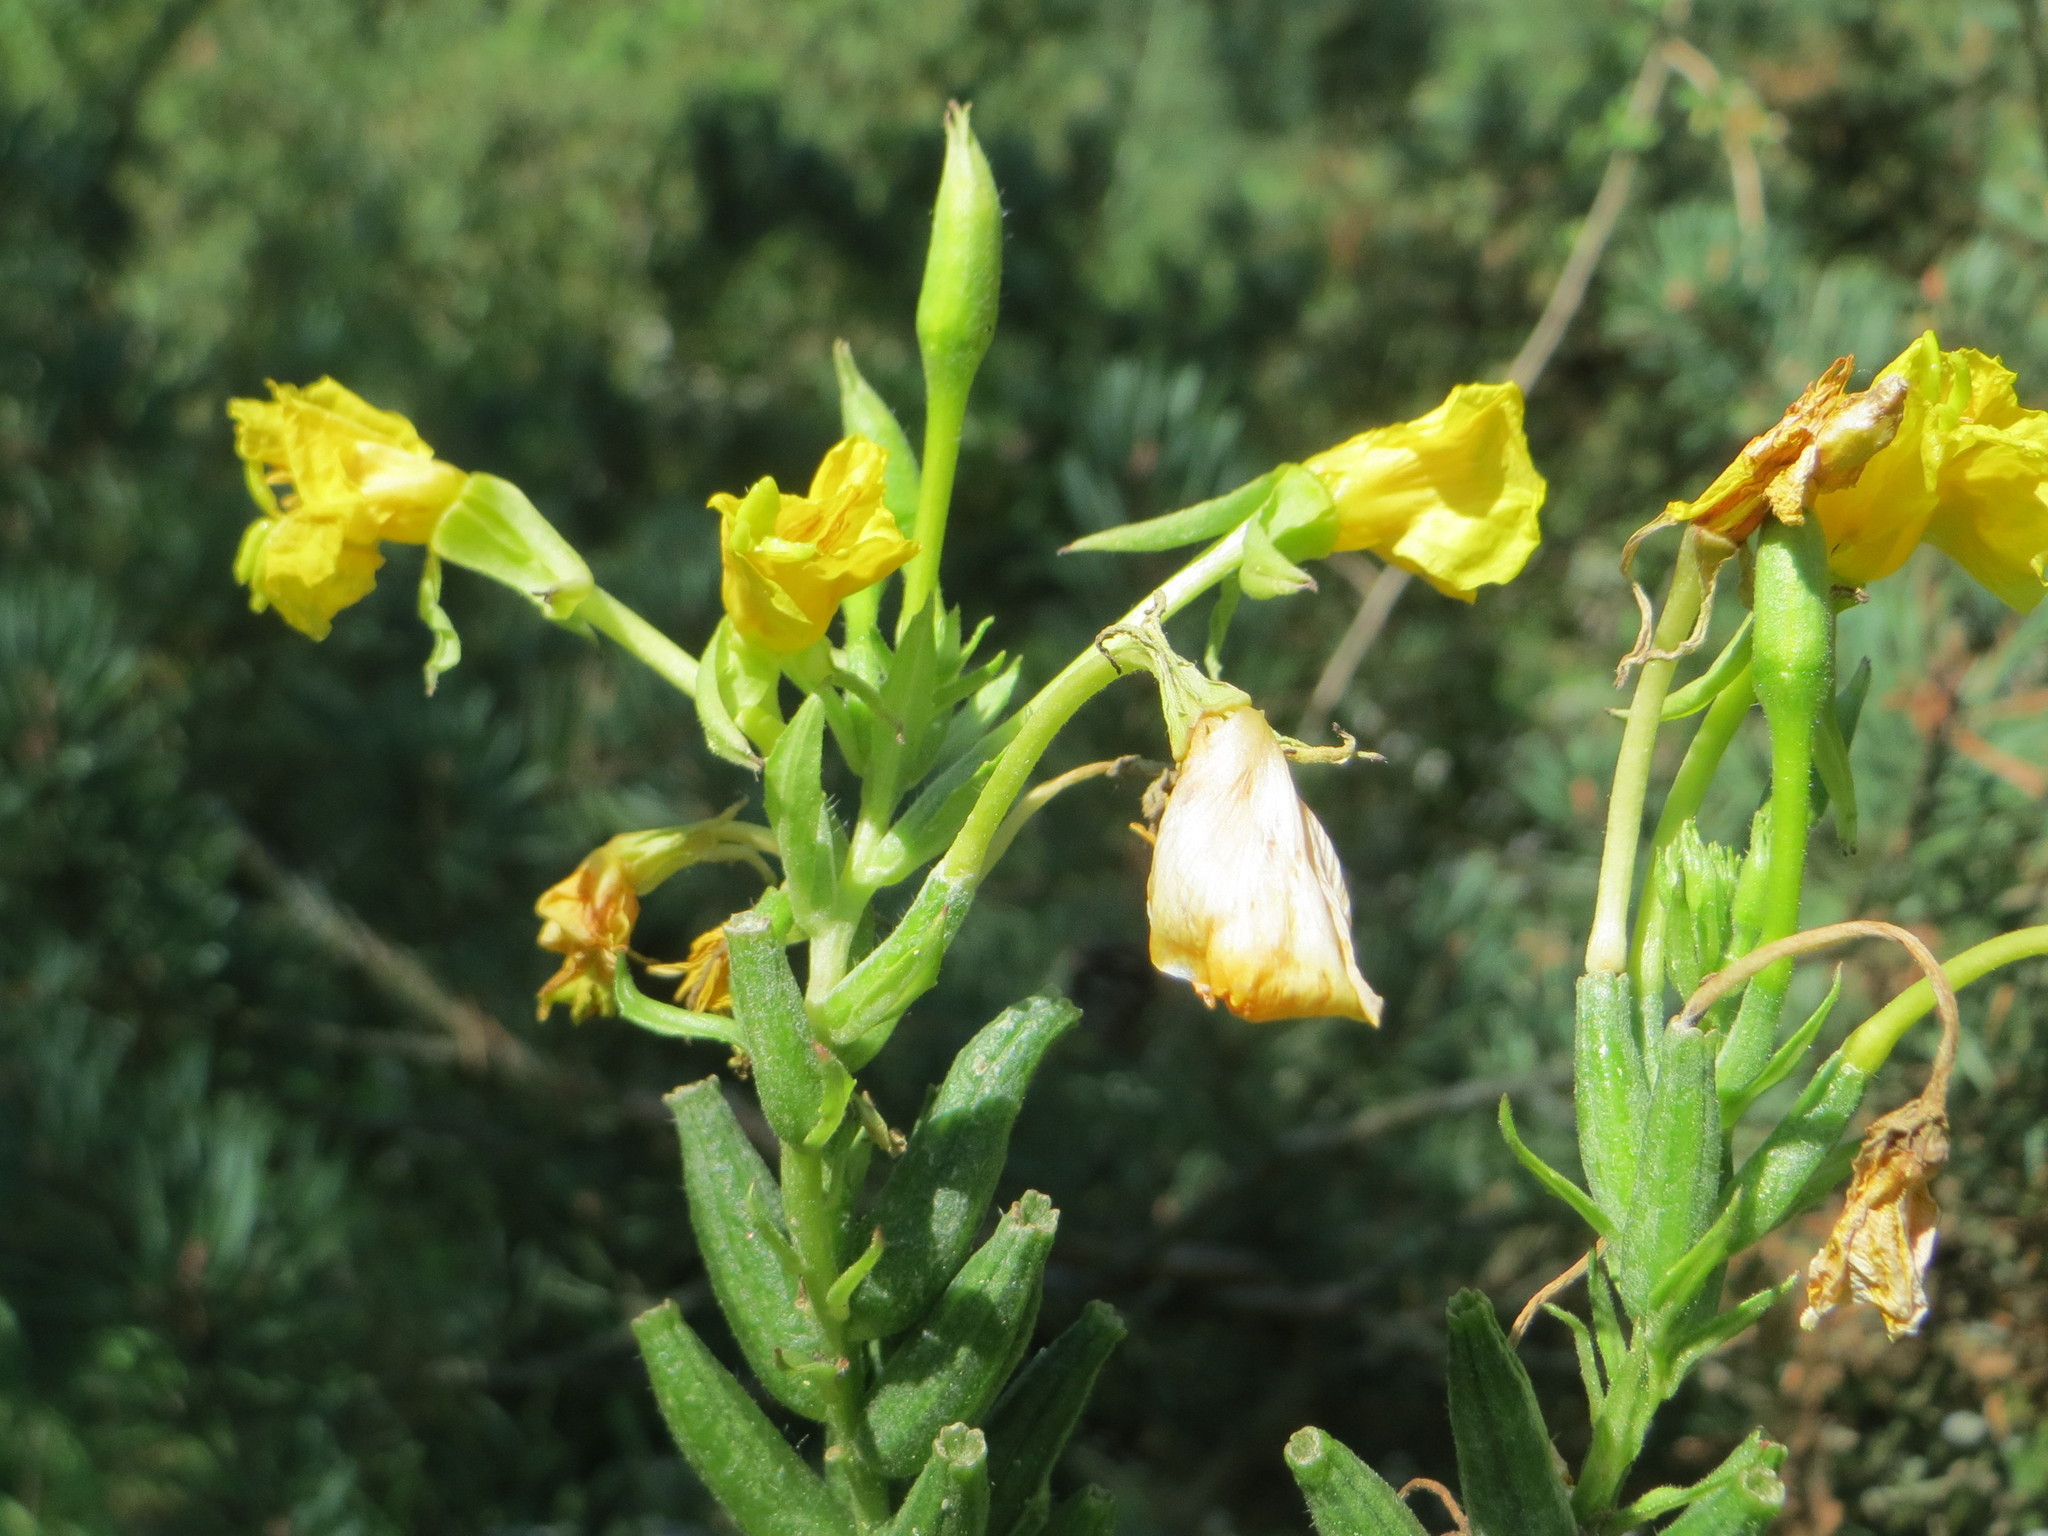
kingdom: Plantae
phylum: Tracheophyta
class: Magnoliopsida
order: Myrtales
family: Onagraceae
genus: Oenothera
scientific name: Oenothera biennis
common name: Common evening-primrose
